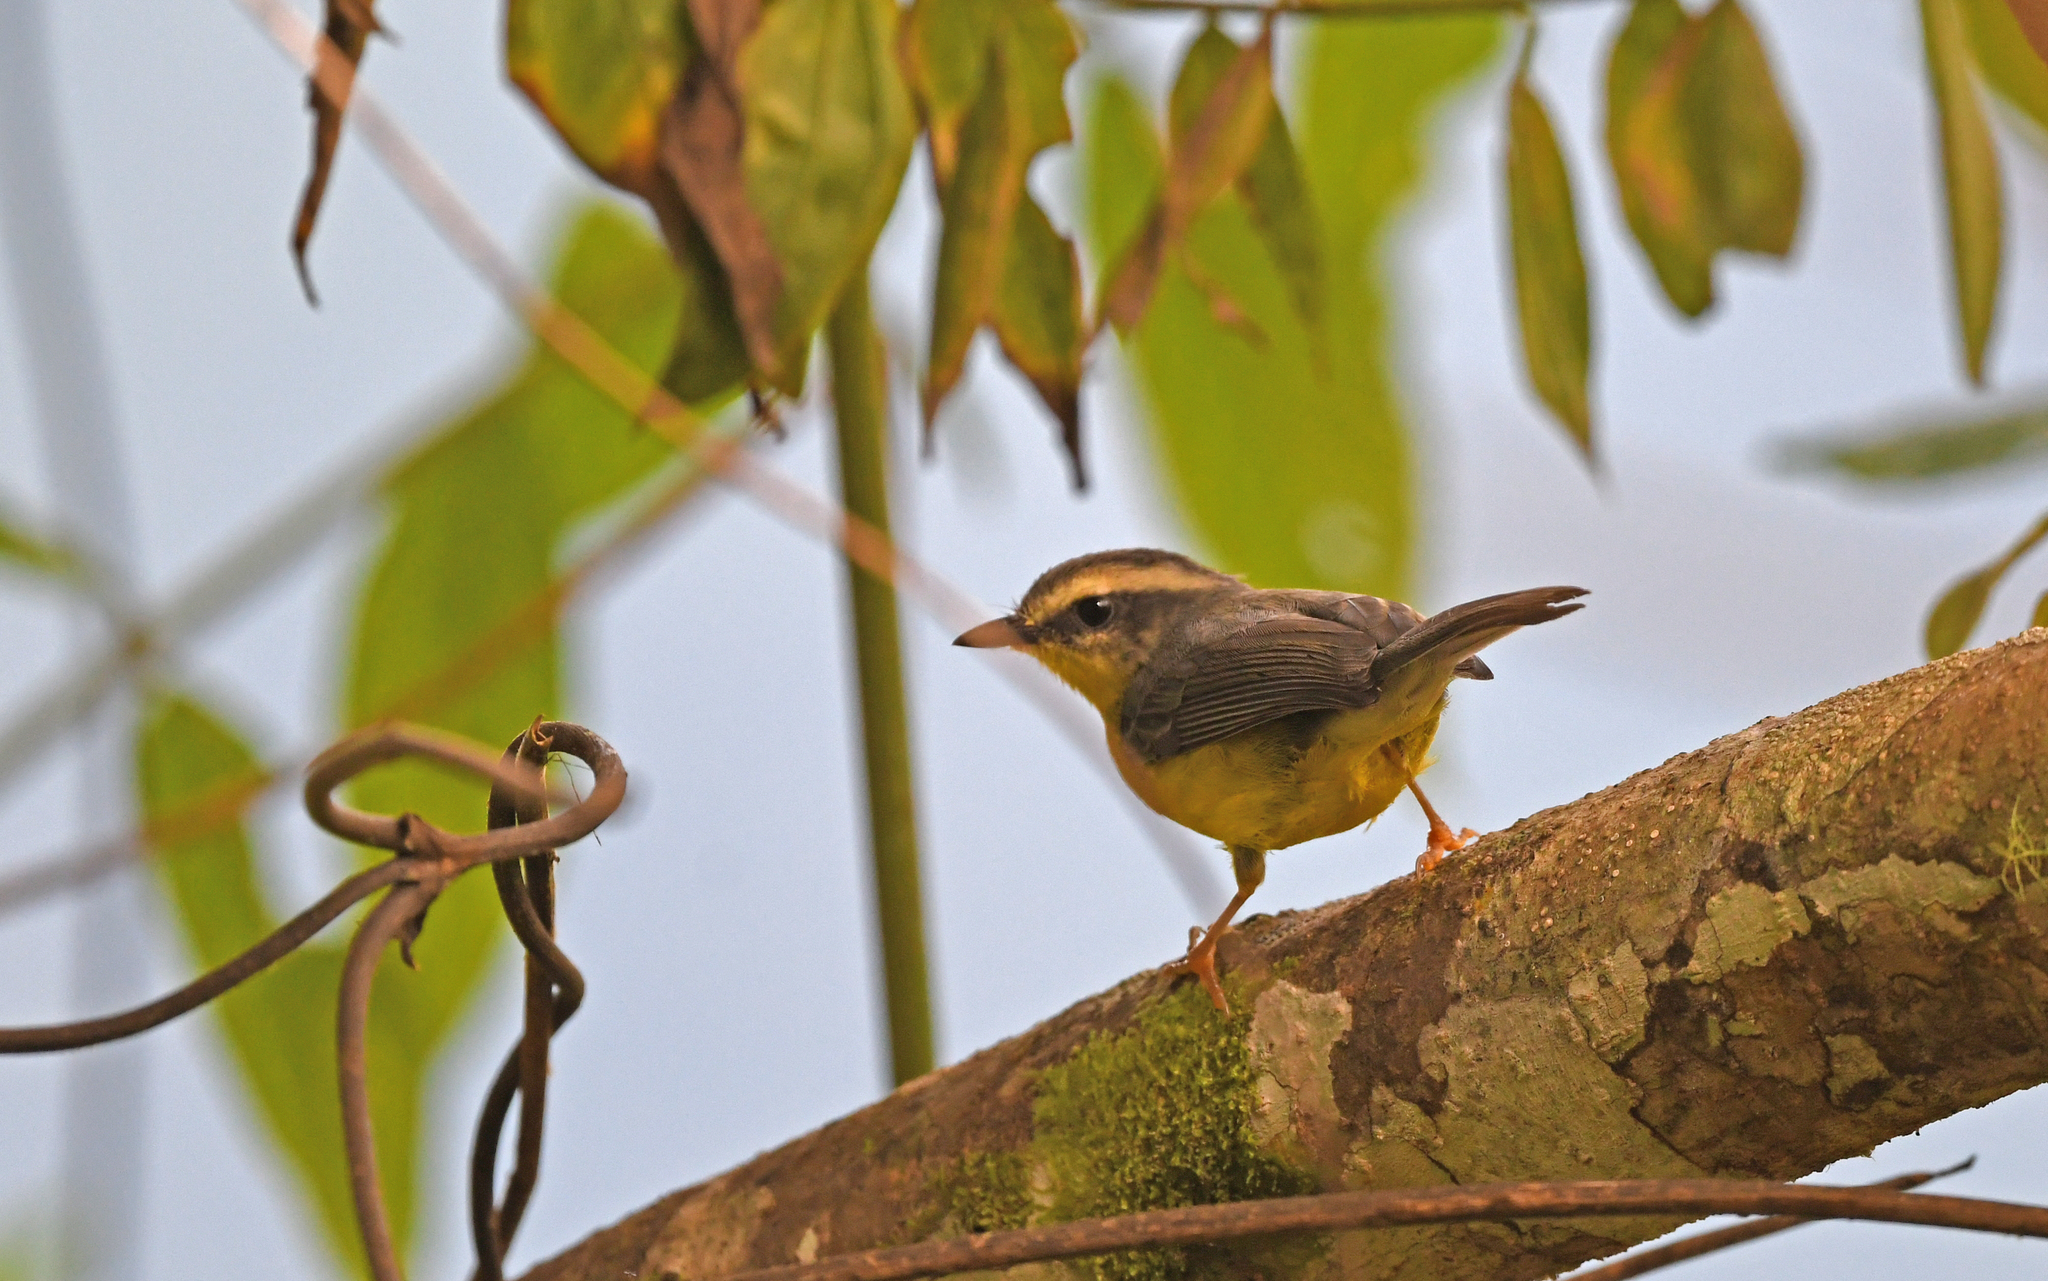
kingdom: Animalia
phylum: Chordata
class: Aves
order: Passeriformes
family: Parulidae
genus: Basileuterus
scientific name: Basileuterus culicivorus
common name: Golden-crowned warbler
